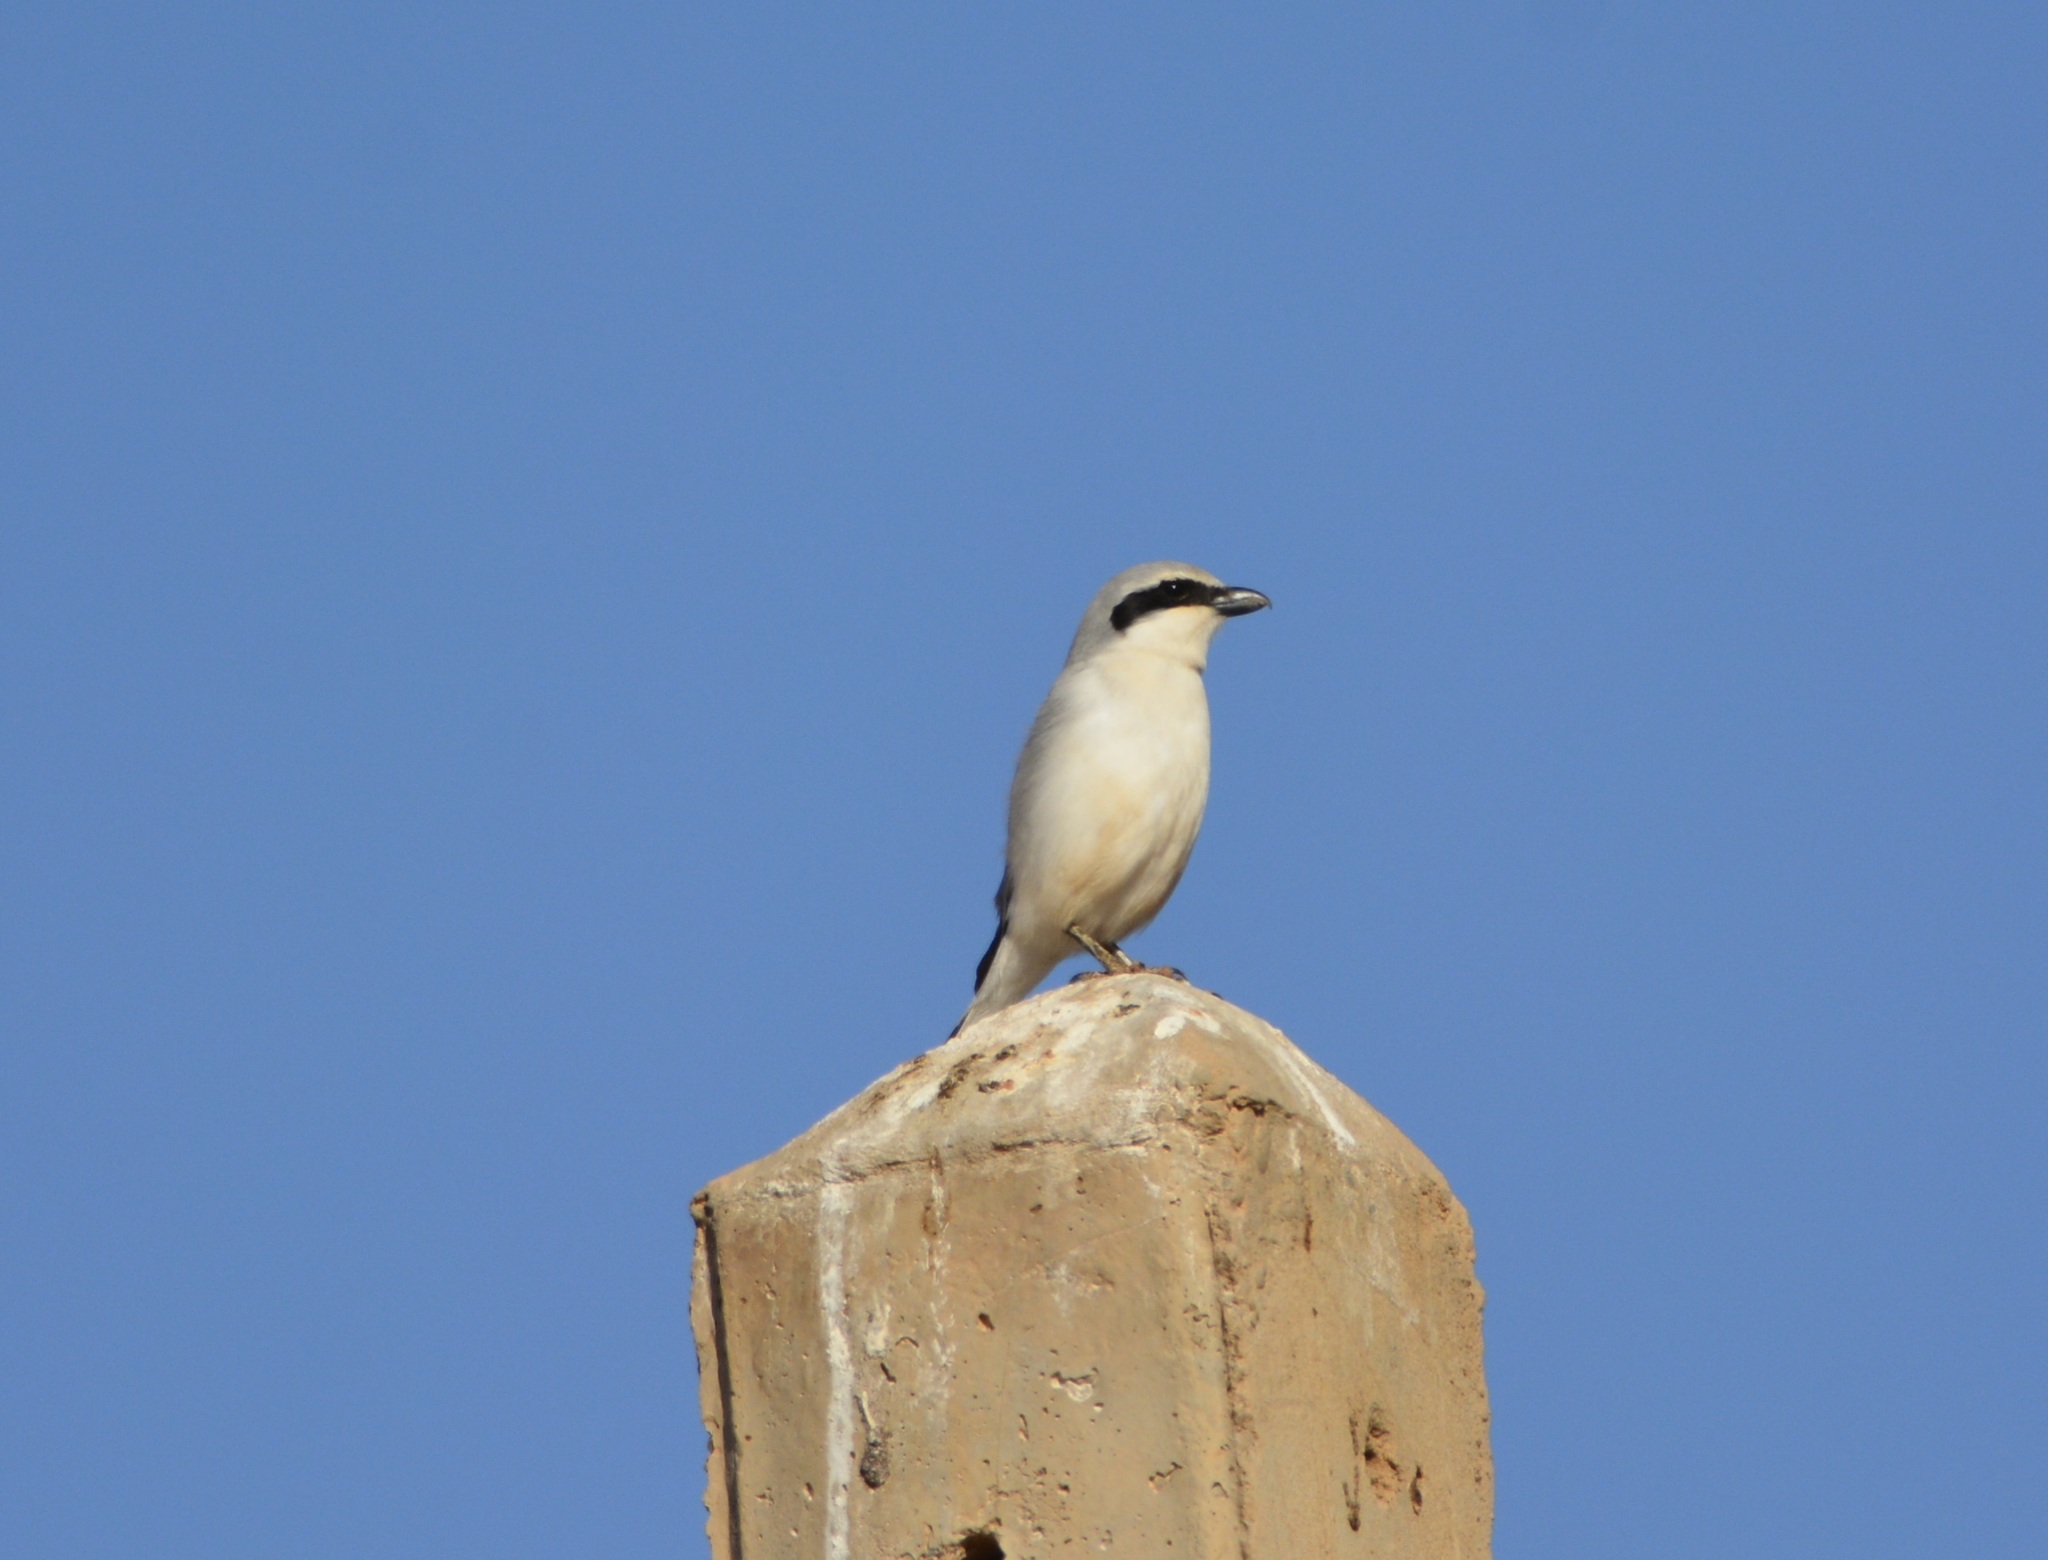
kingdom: Animalia
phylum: Chordata
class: Aves
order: Passeriformes
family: Laniidae
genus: Lanius
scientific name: Lanius excubitor
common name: Great grey shrike
